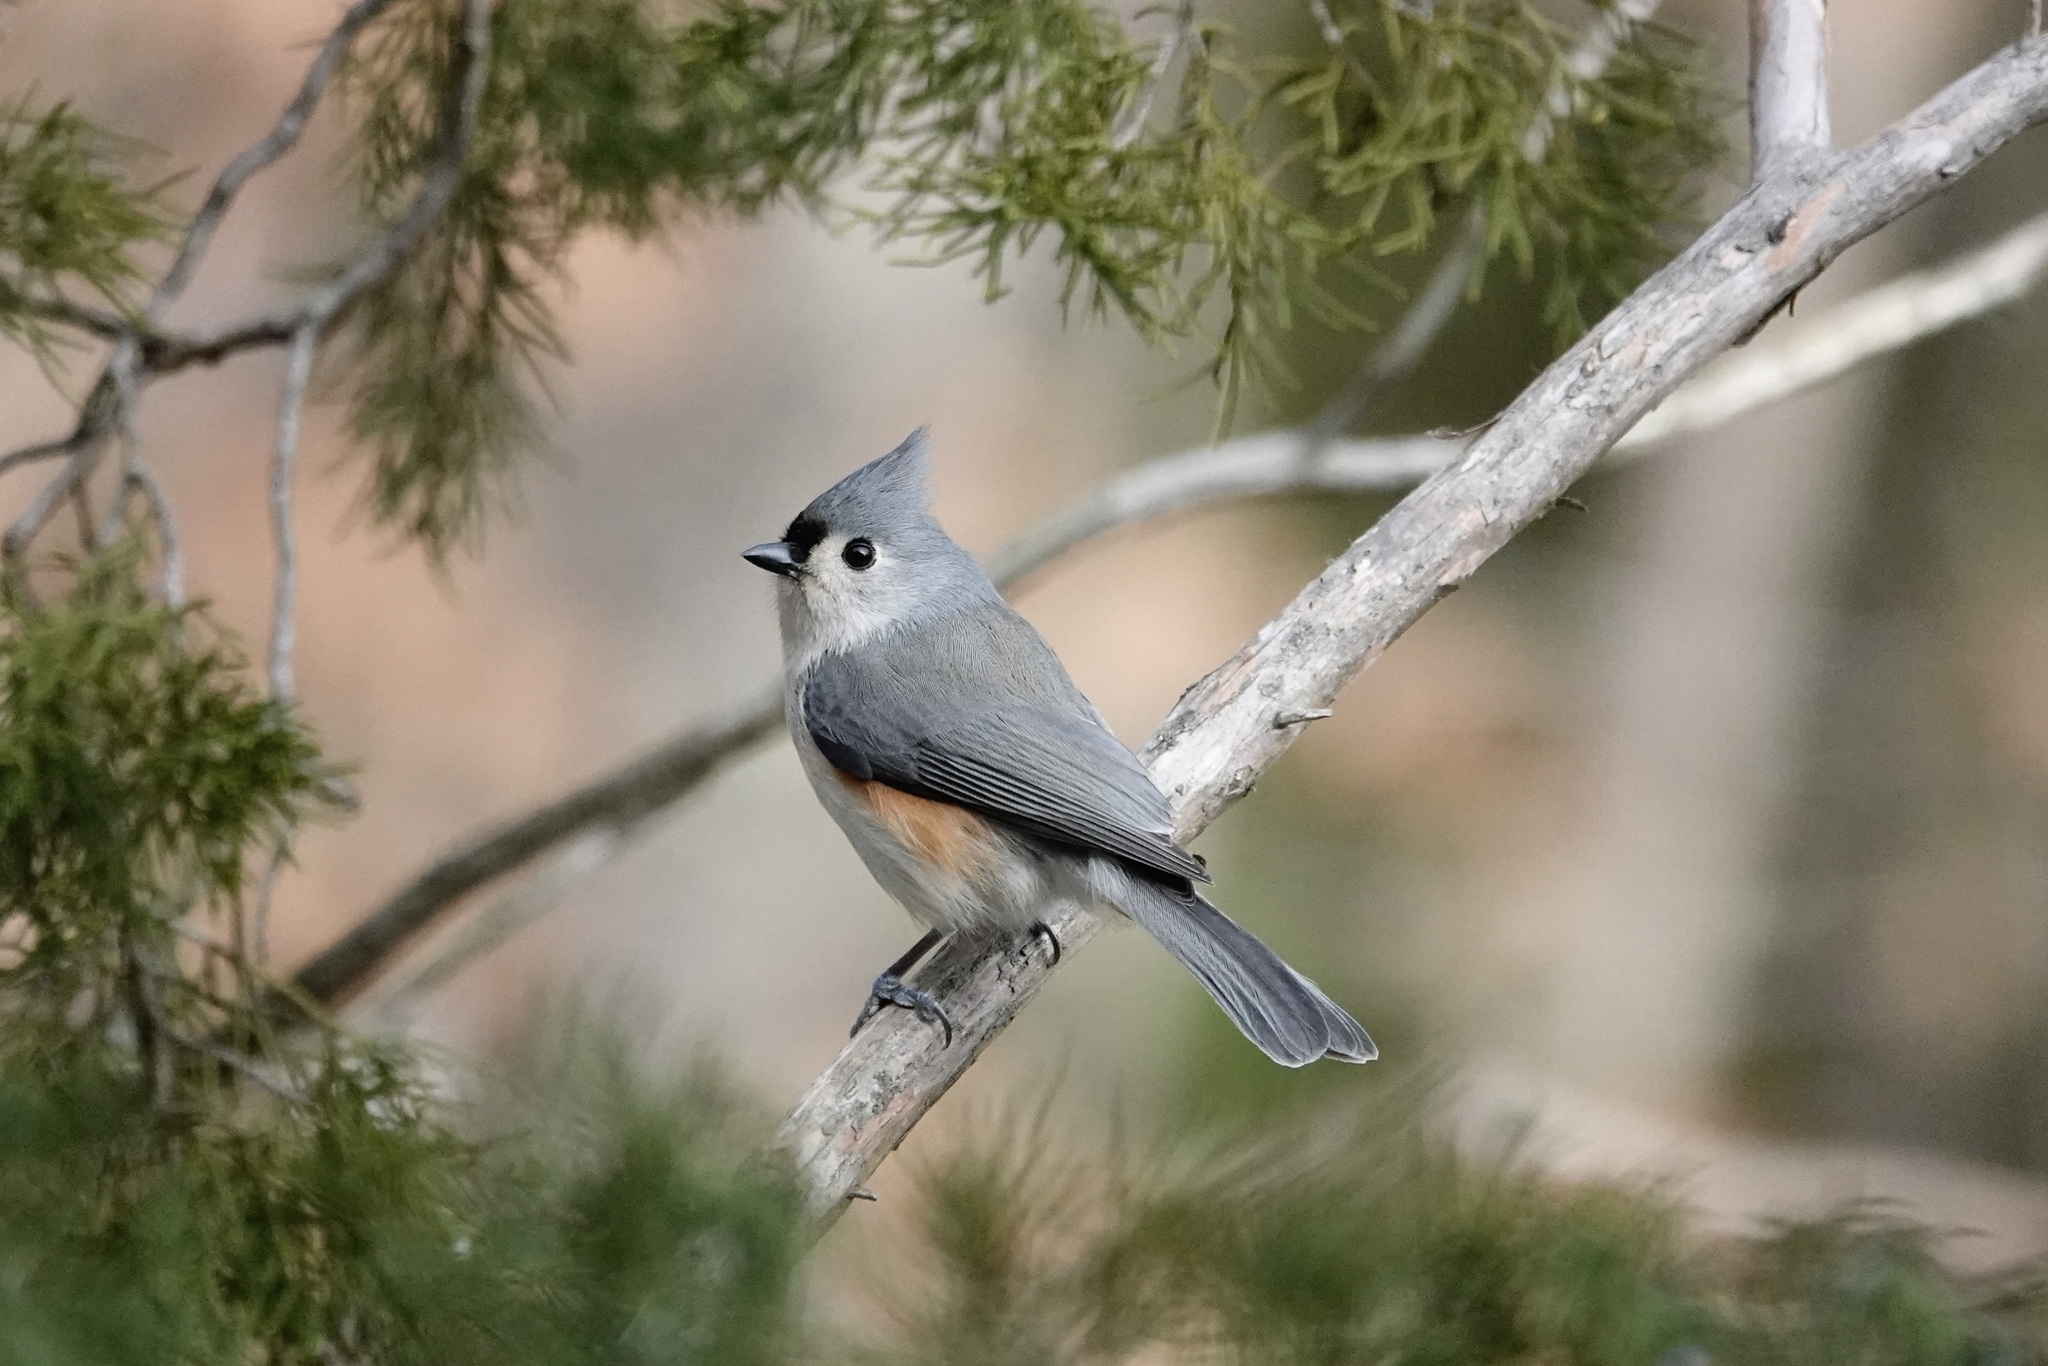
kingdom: Animalia
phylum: Chordata
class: Aves
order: Passeriformes
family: Paridae
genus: Baeolophus
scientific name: Baeolophus bicolor
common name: Tufted titmouse
